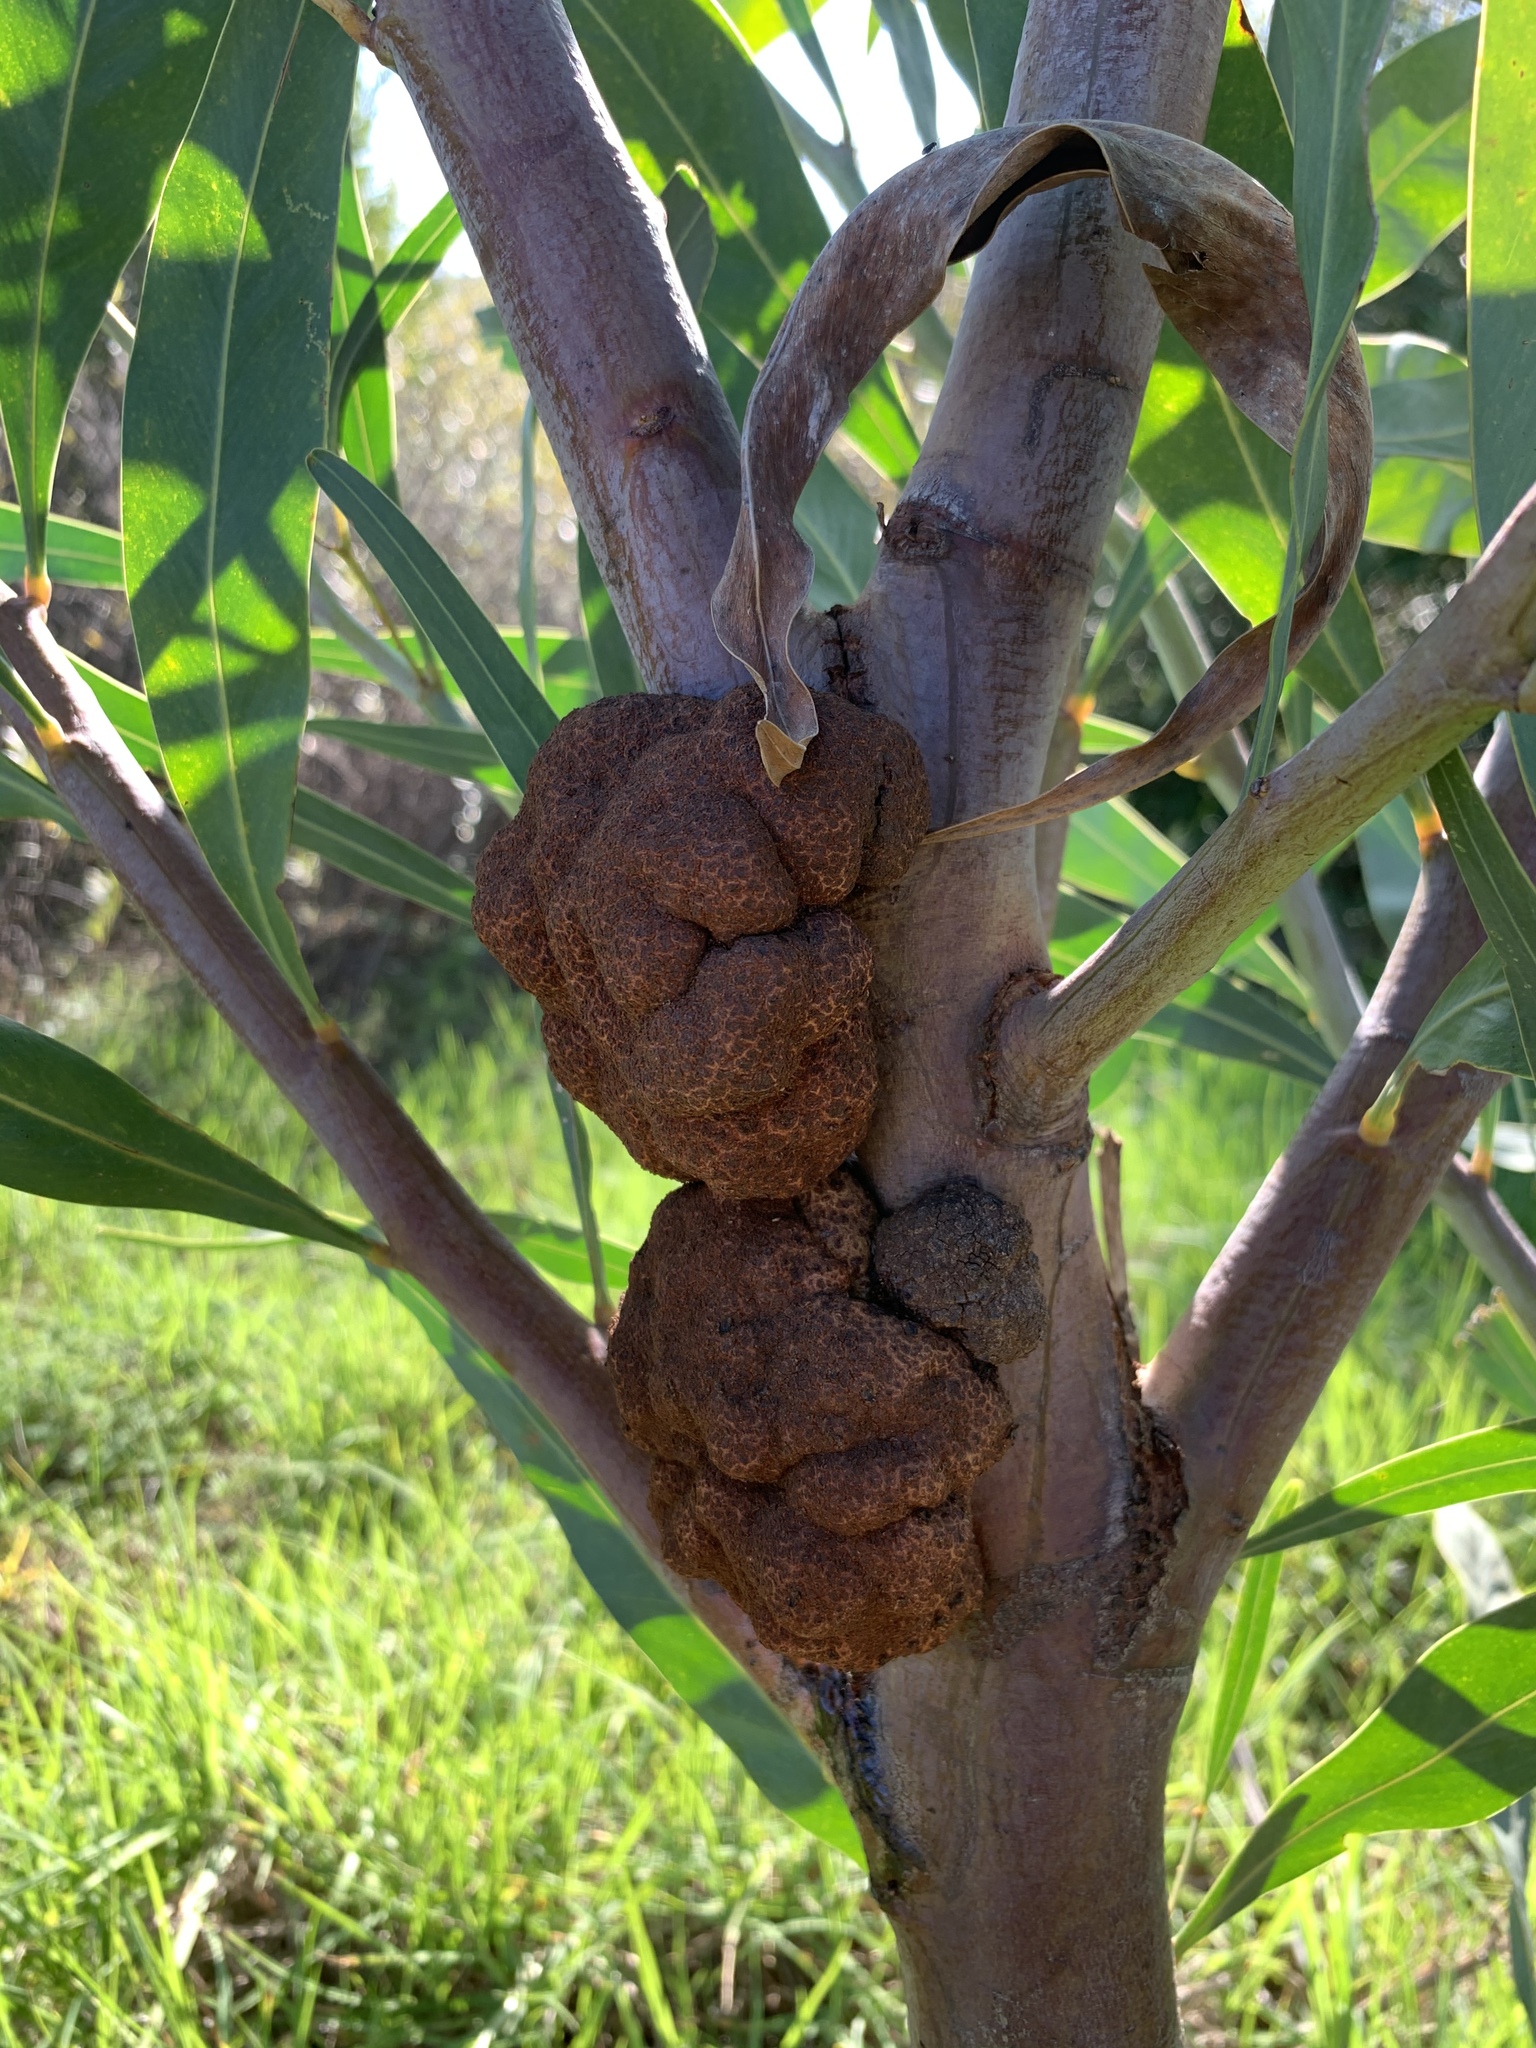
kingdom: Fungi
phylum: Basidiomycota
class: Pucciniomycetes
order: Pucciniales
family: Uromycladiaceae
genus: Uromycladium
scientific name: Uromycladium morrisii
